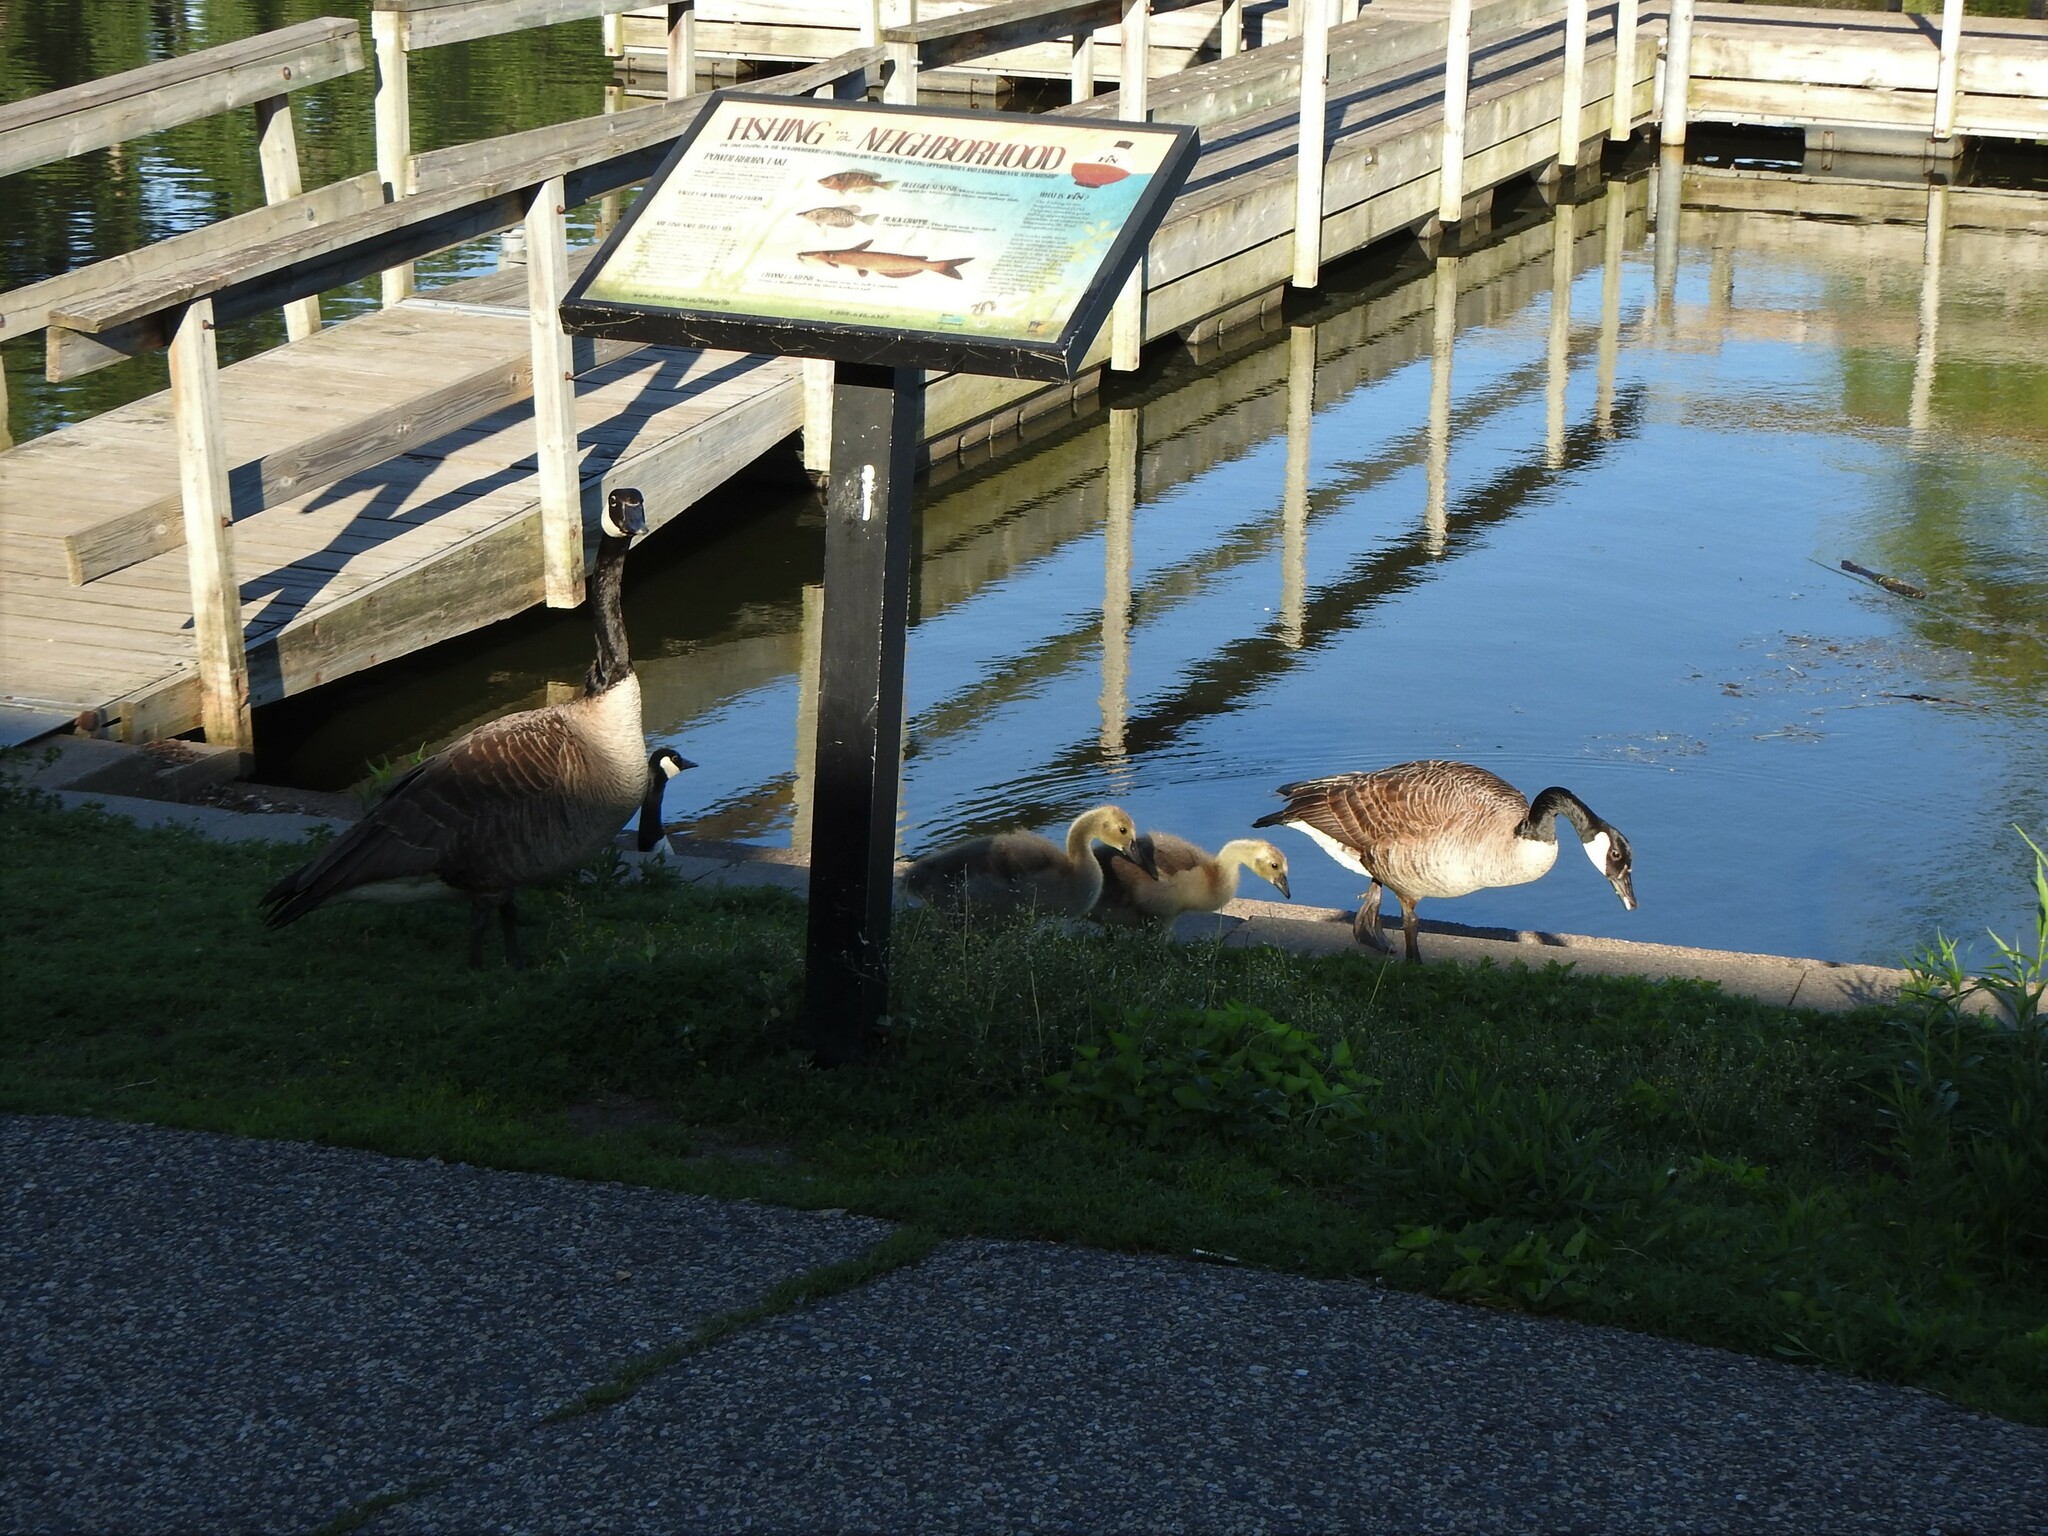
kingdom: Animalia
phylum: Chordata
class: Aves
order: Anseriformes
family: Anatidae
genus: Branta
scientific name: Branta canadensis
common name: Canada goose
